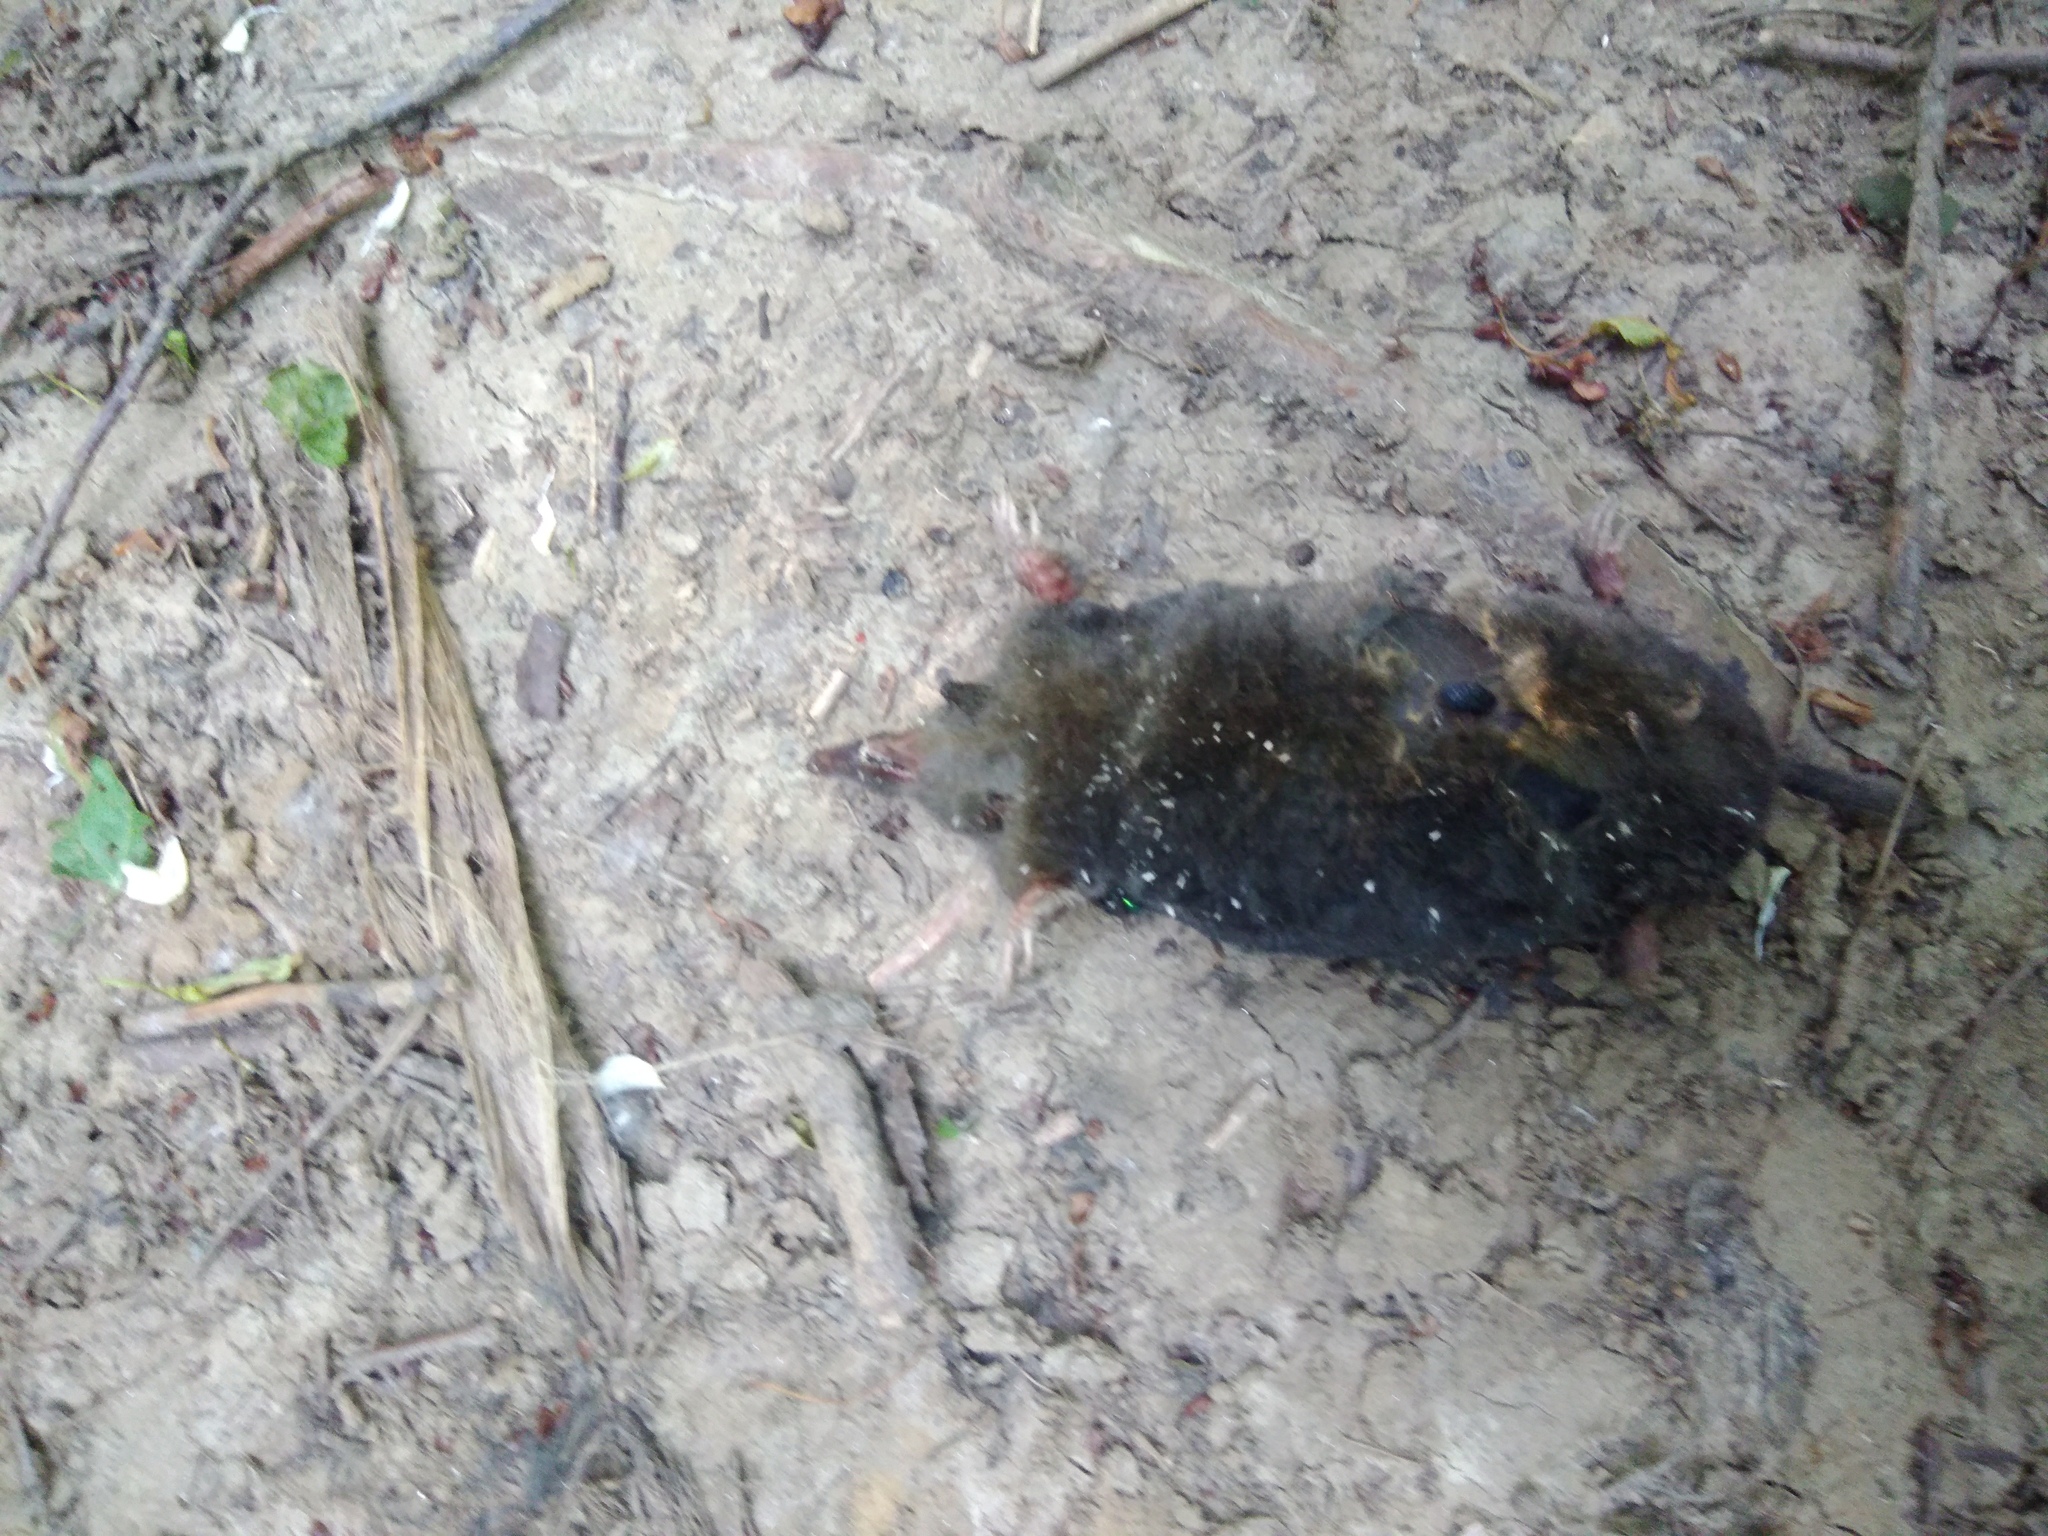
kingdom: Animalia
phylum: Chordata
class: Mammalia
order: Soricomorpha
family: Talpidae
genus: Talpa
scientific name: Talpa europaea
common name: European mole
